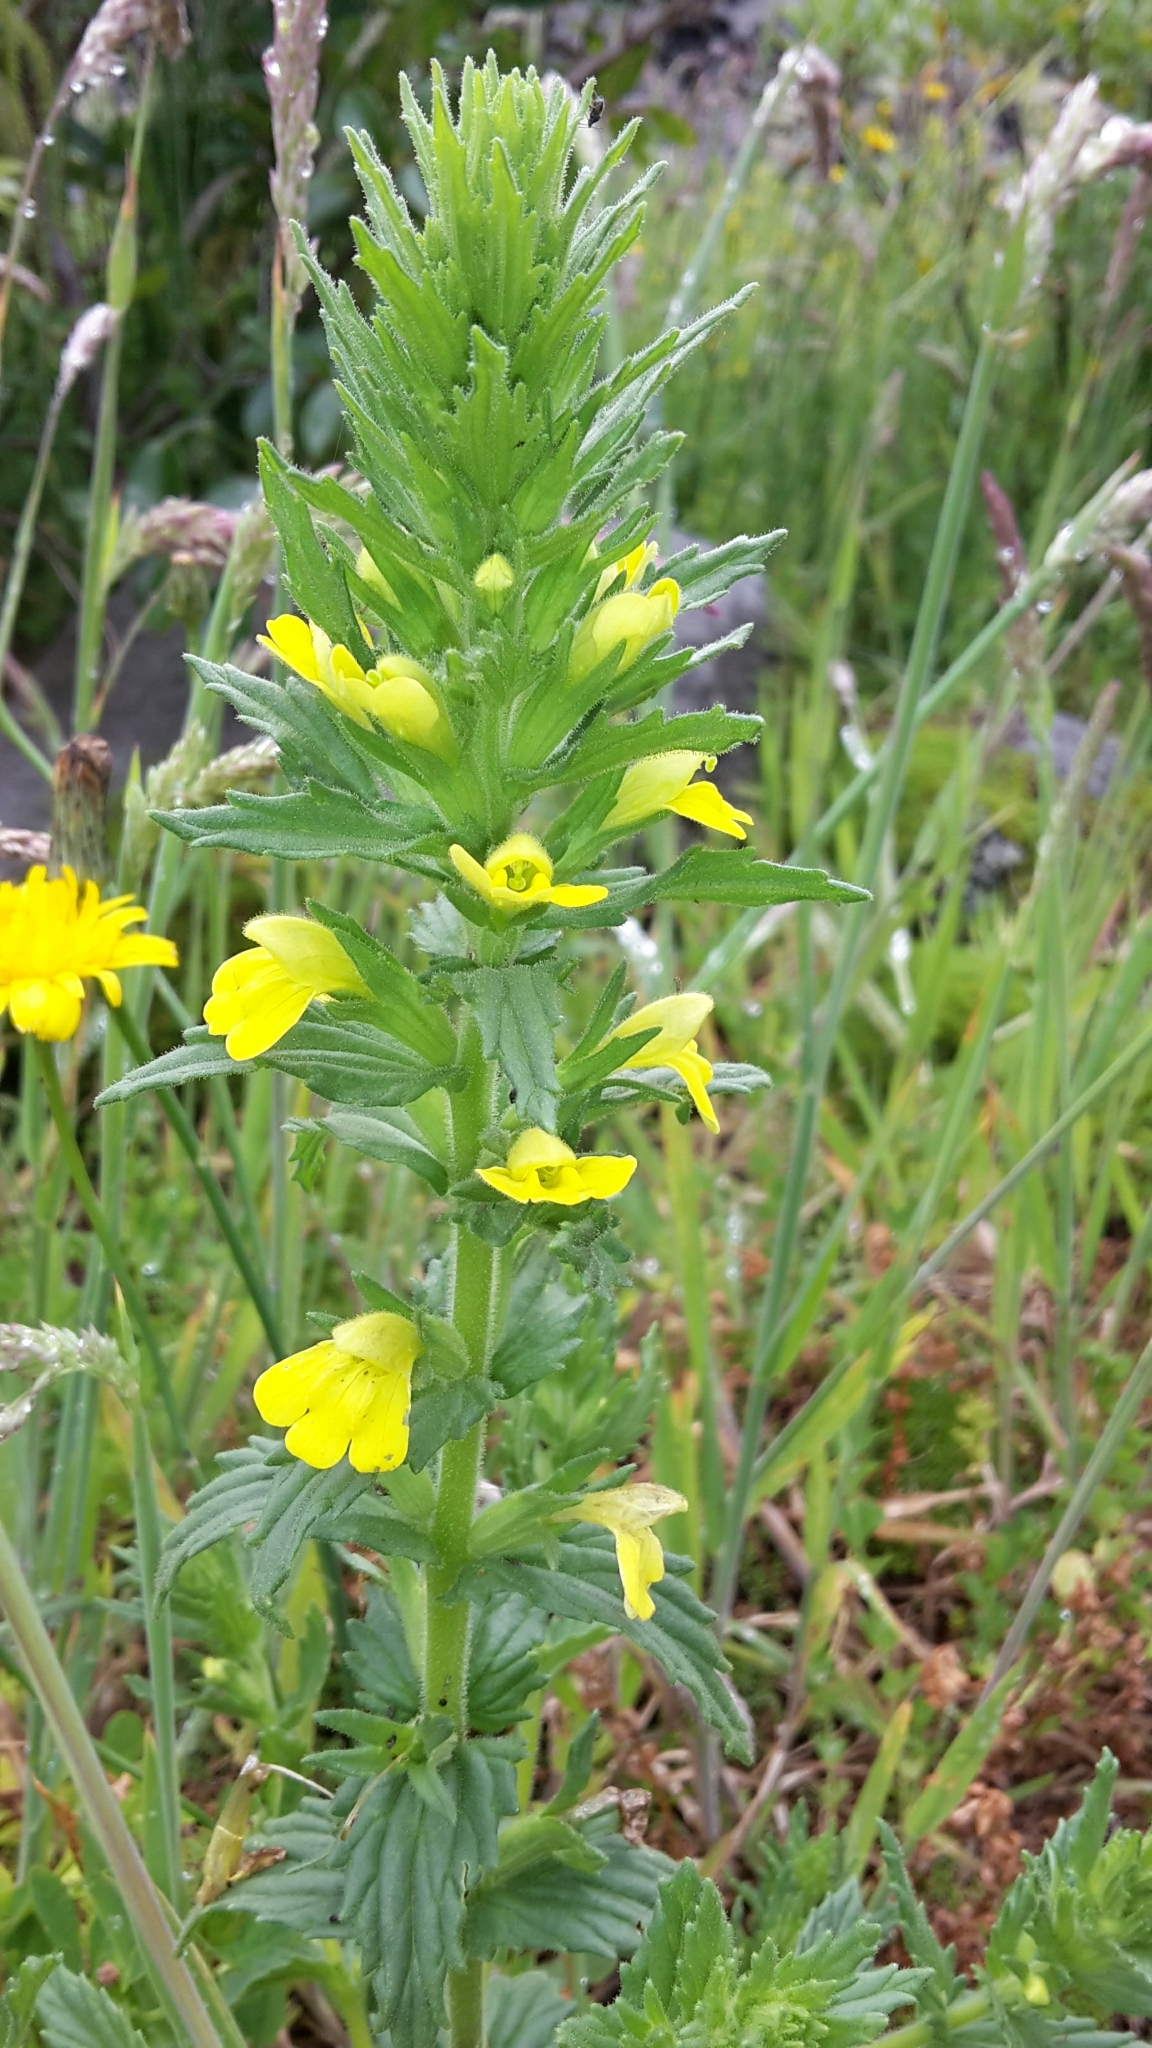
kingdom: Plantae
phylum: Tracheophyta
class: Magnoliopsida
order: Lamiales
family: Orobanchaceae
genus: Bellardia
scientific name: Bellardia viscosa
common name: Sticky parentucellia
